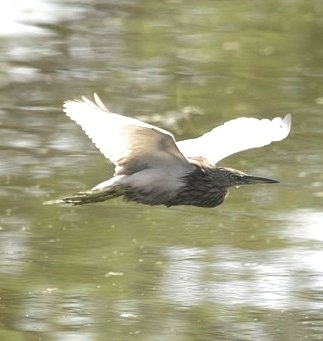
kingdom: Animalia
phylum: Chordata
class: Aves
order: Pelecaniformes
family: Ardeidae
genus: Ardeola
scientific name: Ardeola grayii
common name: Indian pond heron
